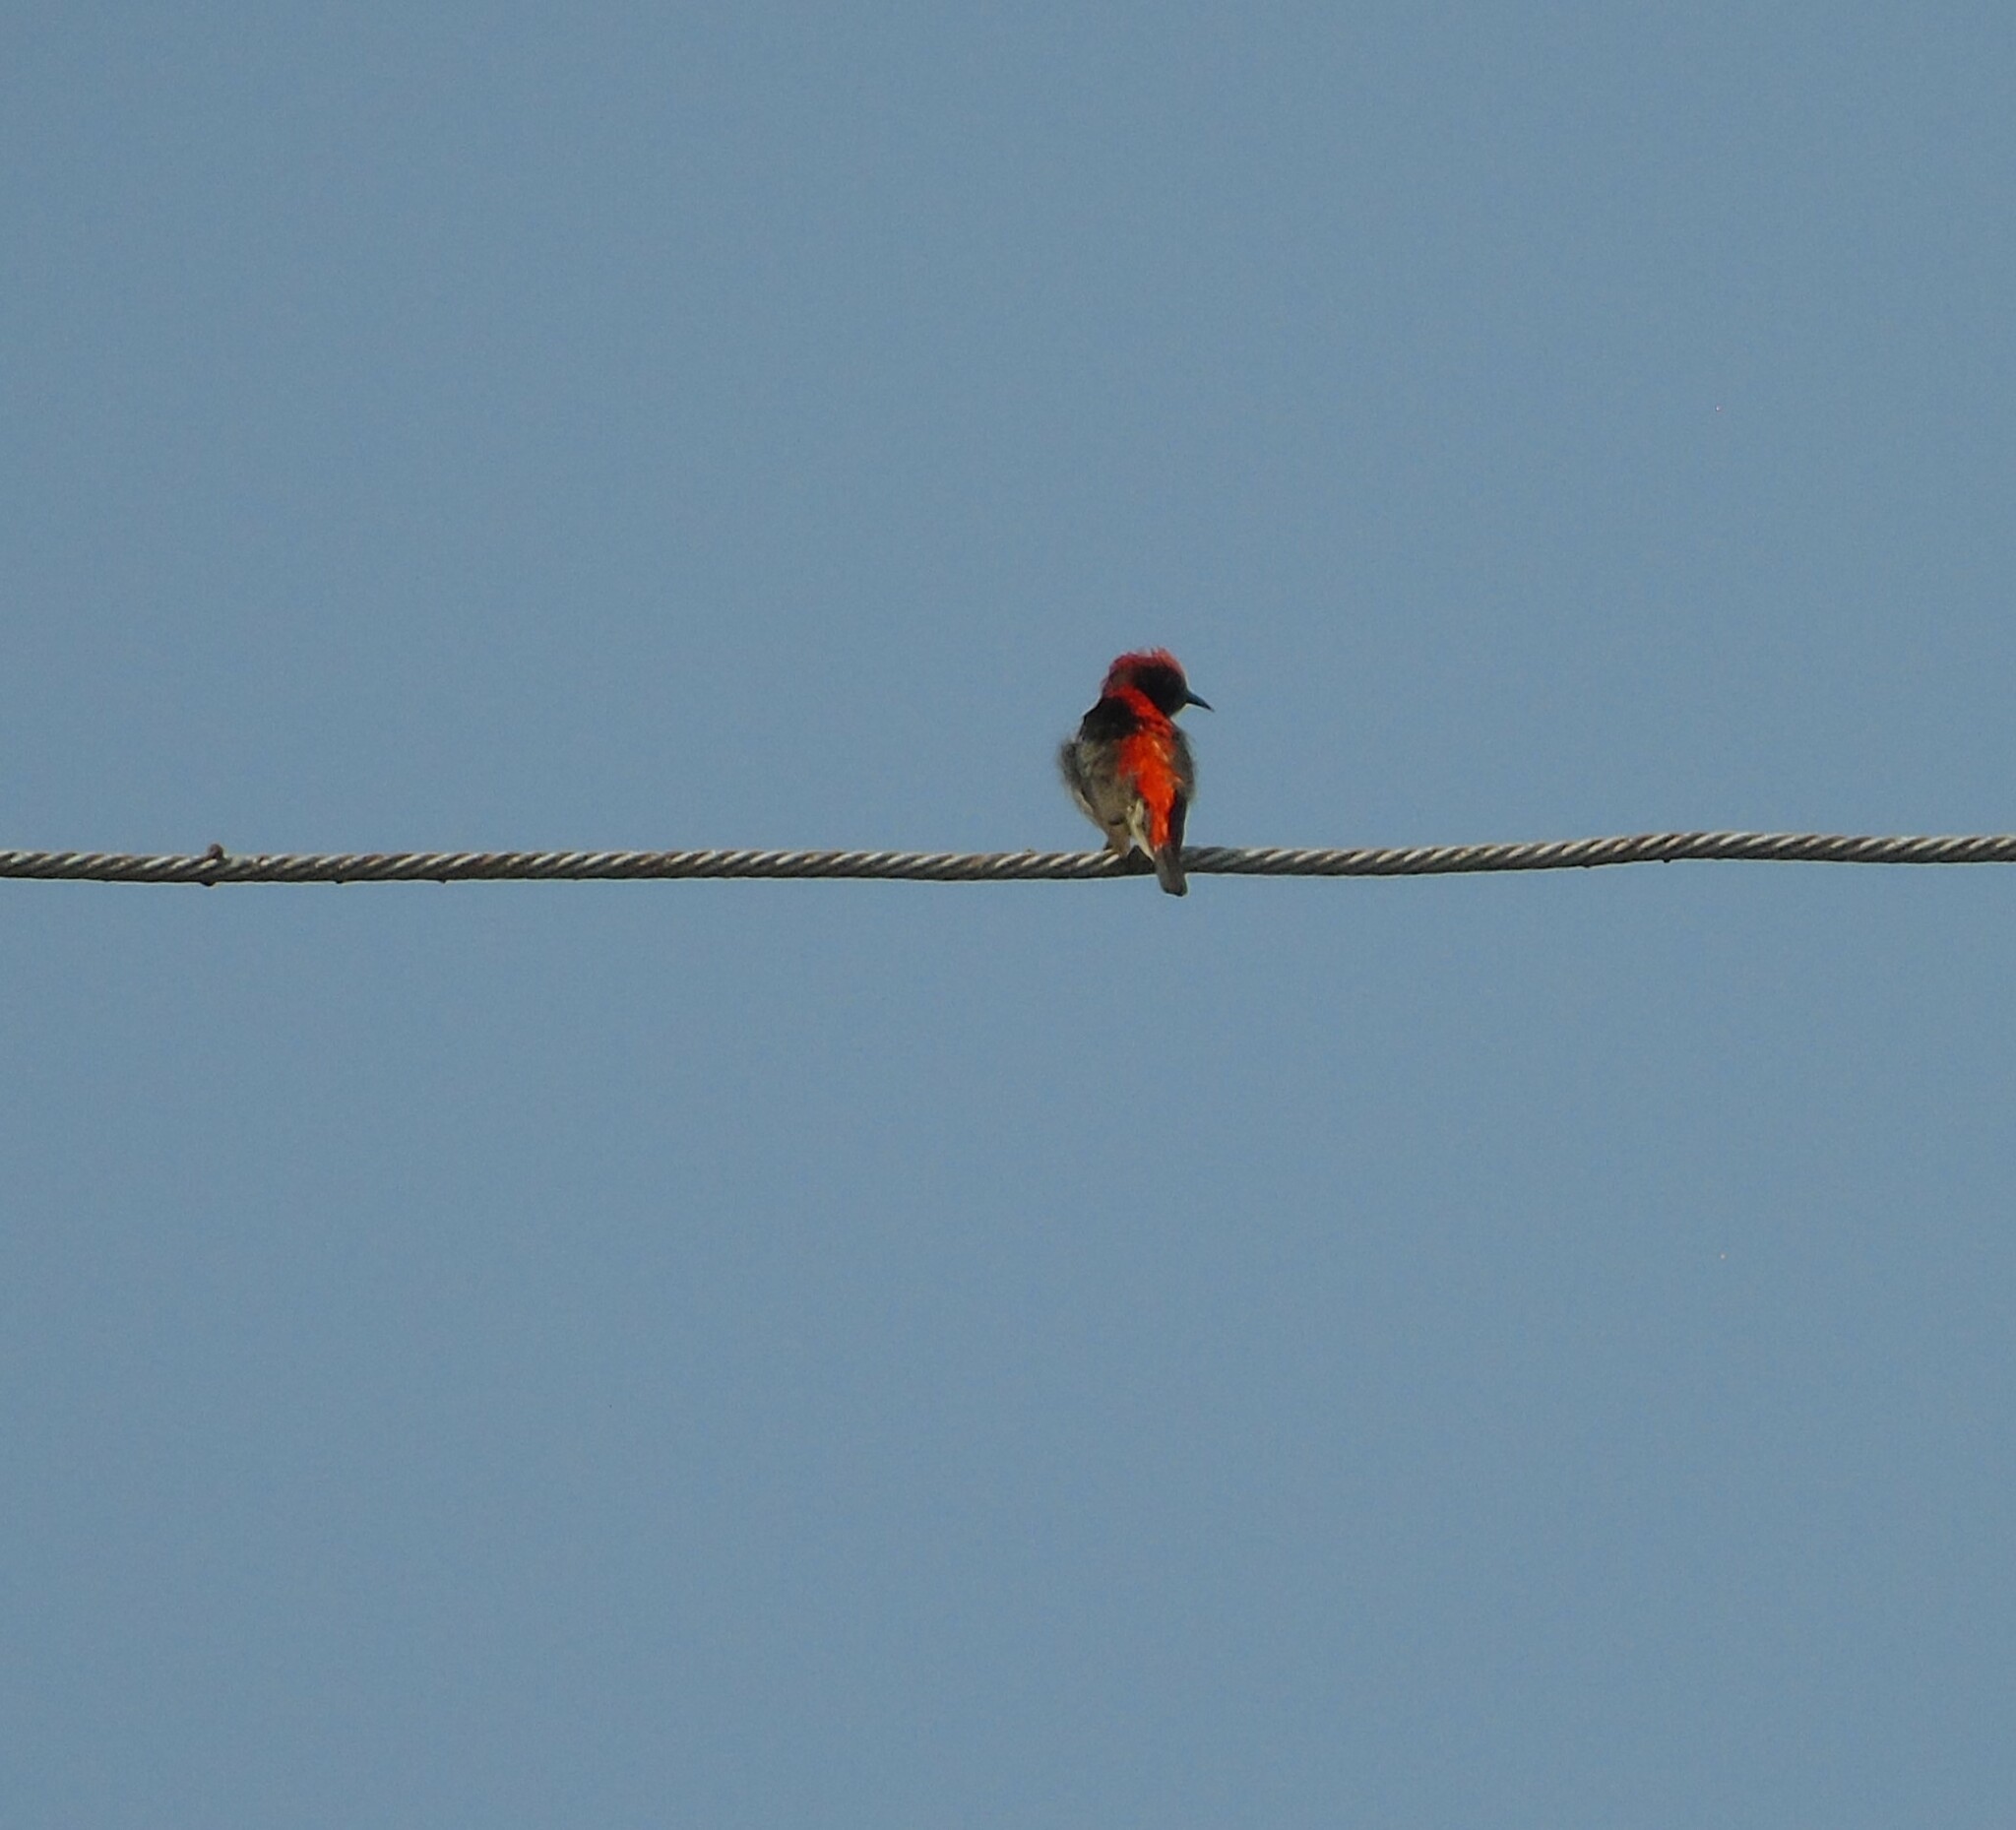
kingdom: Animalia
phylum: Chordata
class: Aves
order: Passeriformes
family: Dicaeidae
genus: Dicaeum
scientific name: Dicaeum cruentatum
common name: Scarlet-backed flowerpecker
